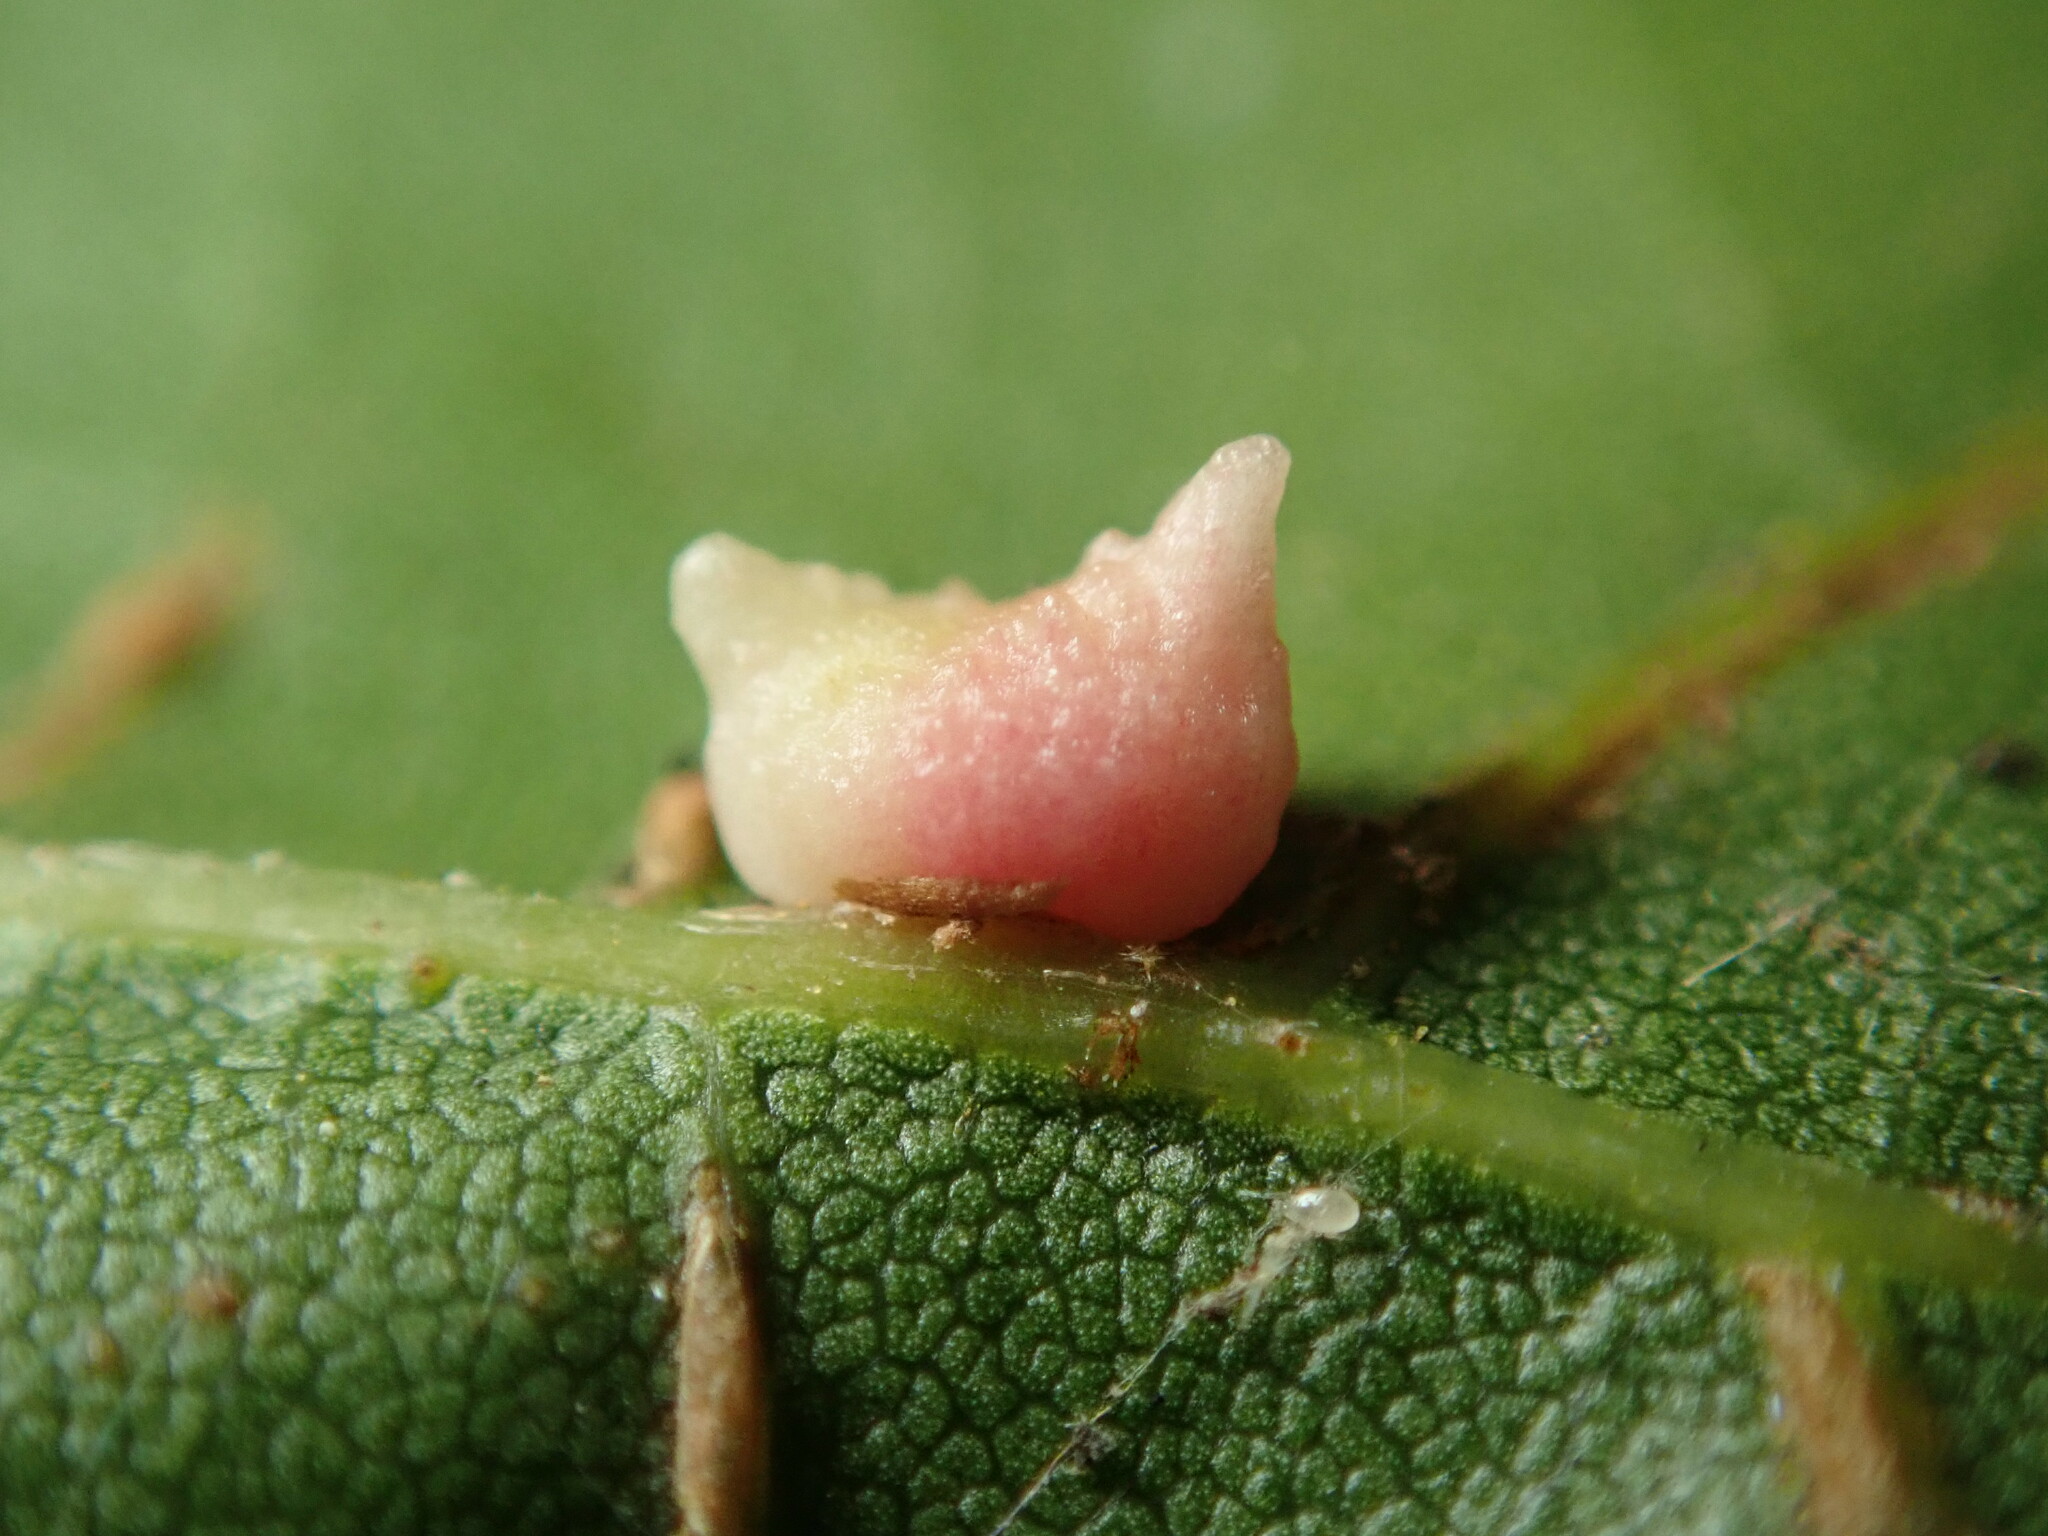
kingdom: Animalia
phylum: Arthropoda
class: Insecta
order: Hymenoptera
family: Cynipidae
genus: Dryocosmus
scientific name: Dryocosmus
